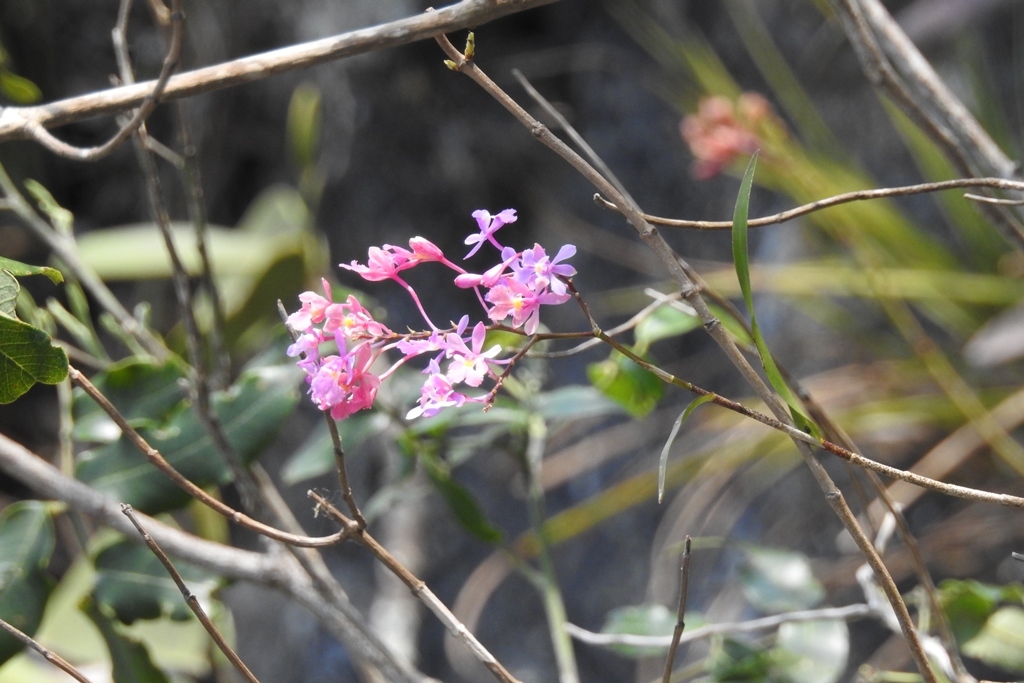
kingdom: Plantae
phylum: Tracheophyta
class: Liliopsida
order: Asparagales
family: Orchidaceae
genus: Epidendrum
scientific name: Epidendrum myrianthum
